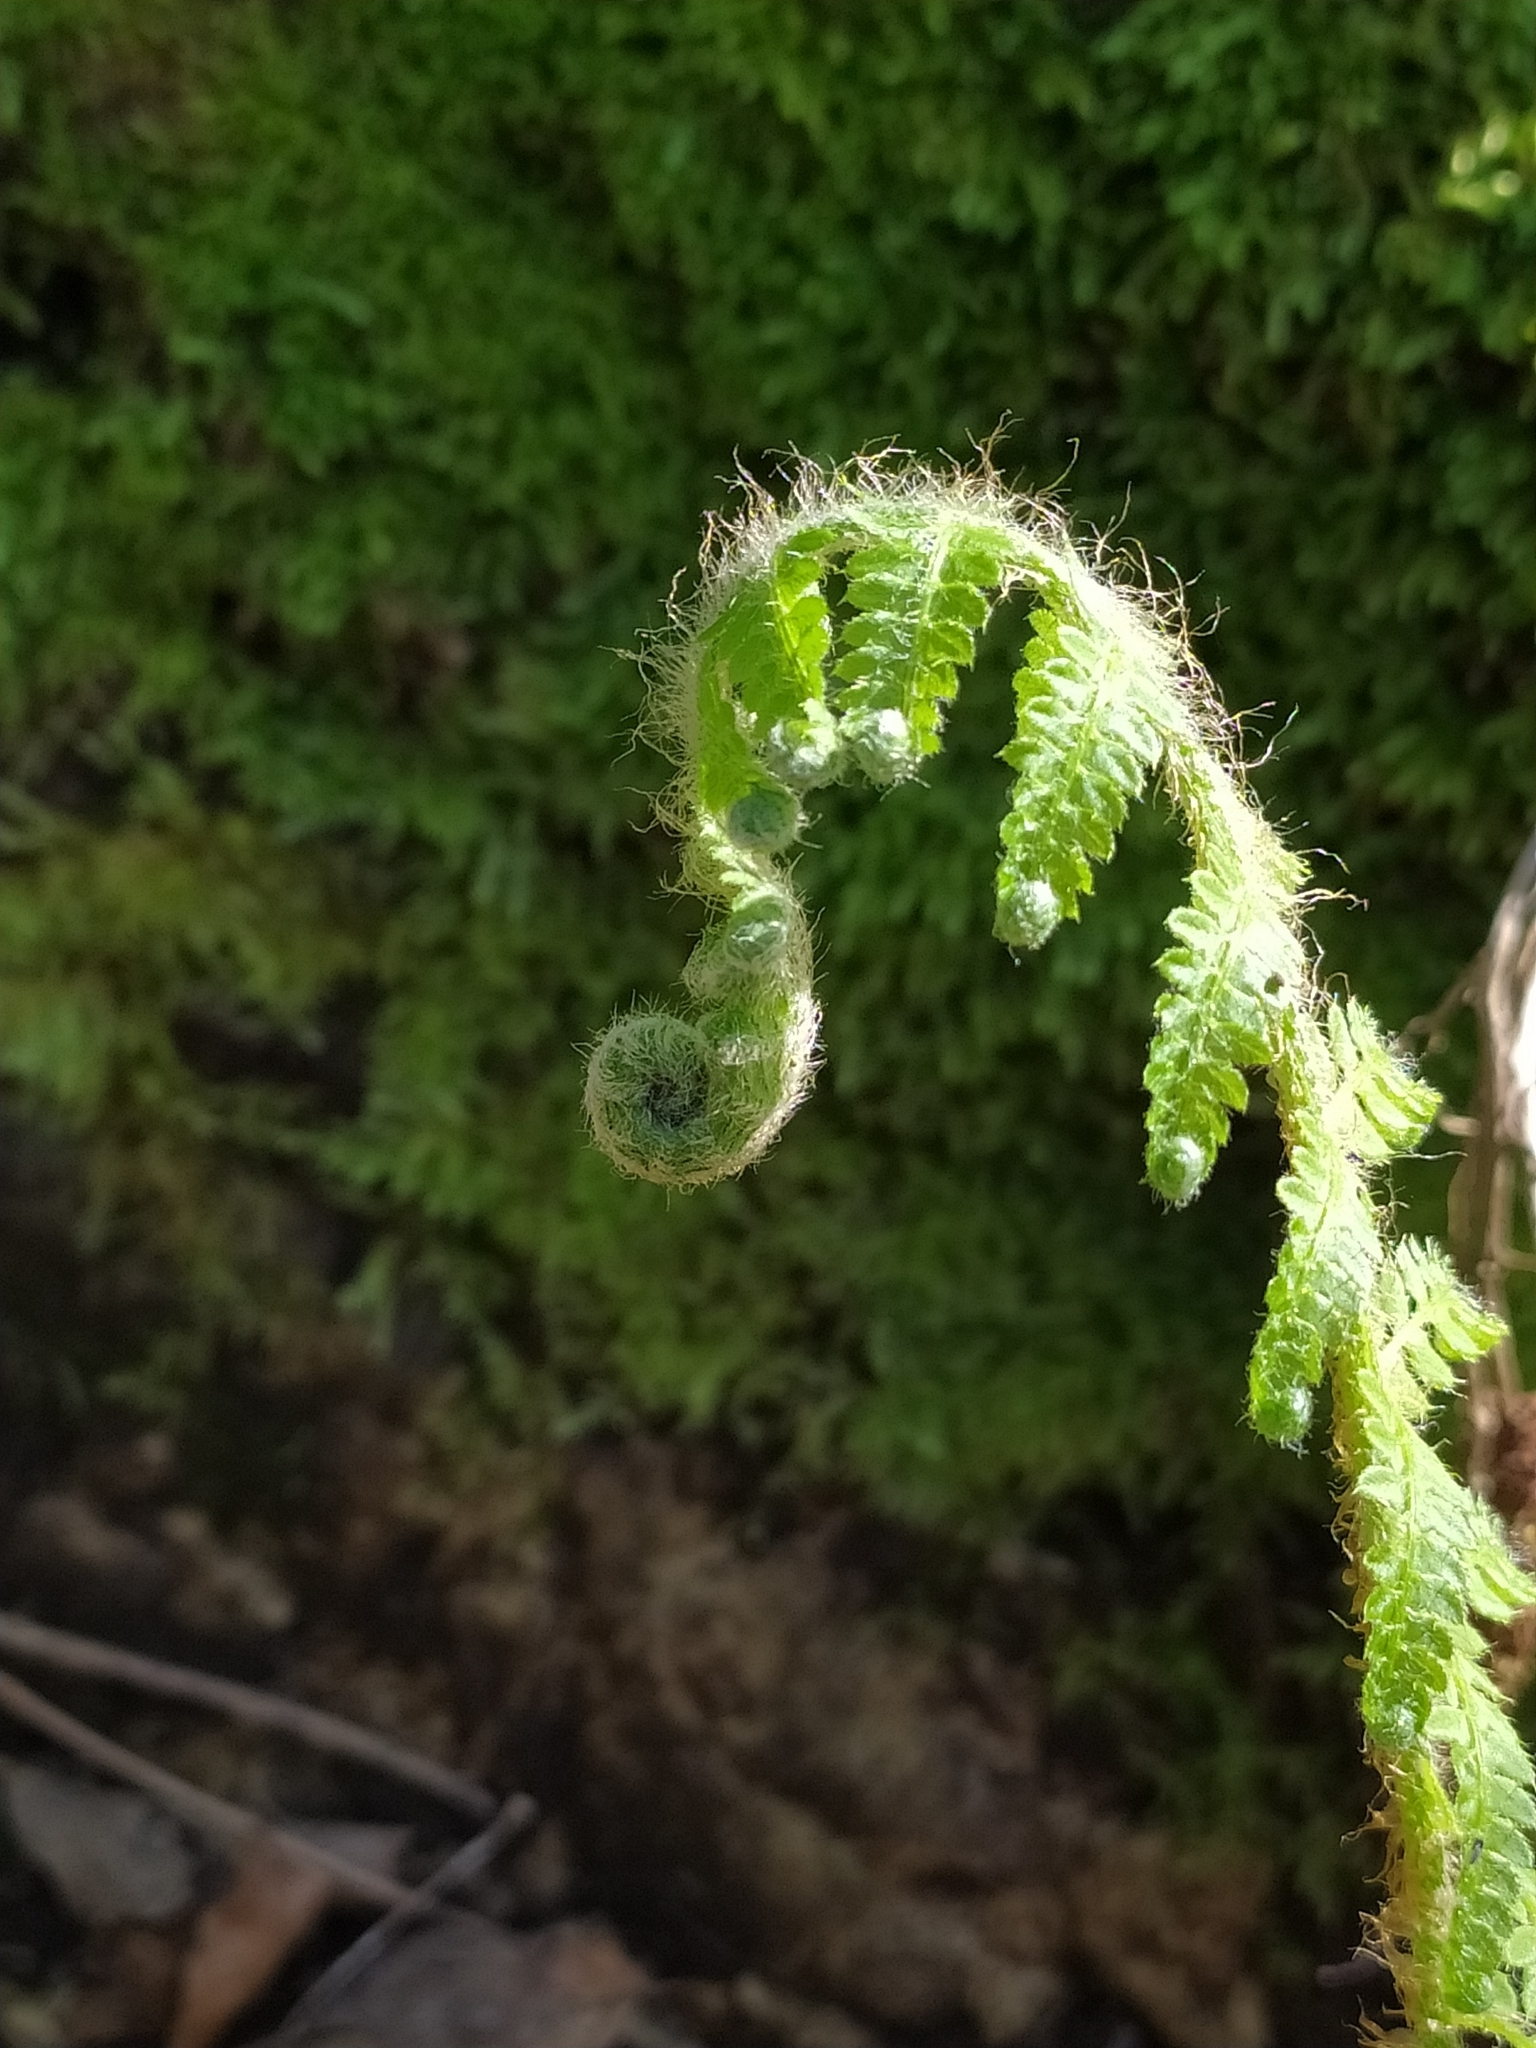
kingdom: Plantae
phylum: Tracheophyta
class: Polypodiopsida
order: Polypodiales
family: Dryopteridaceae
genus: Polystichum
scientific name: Polystichum setiferum
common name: Soft shield-fern
